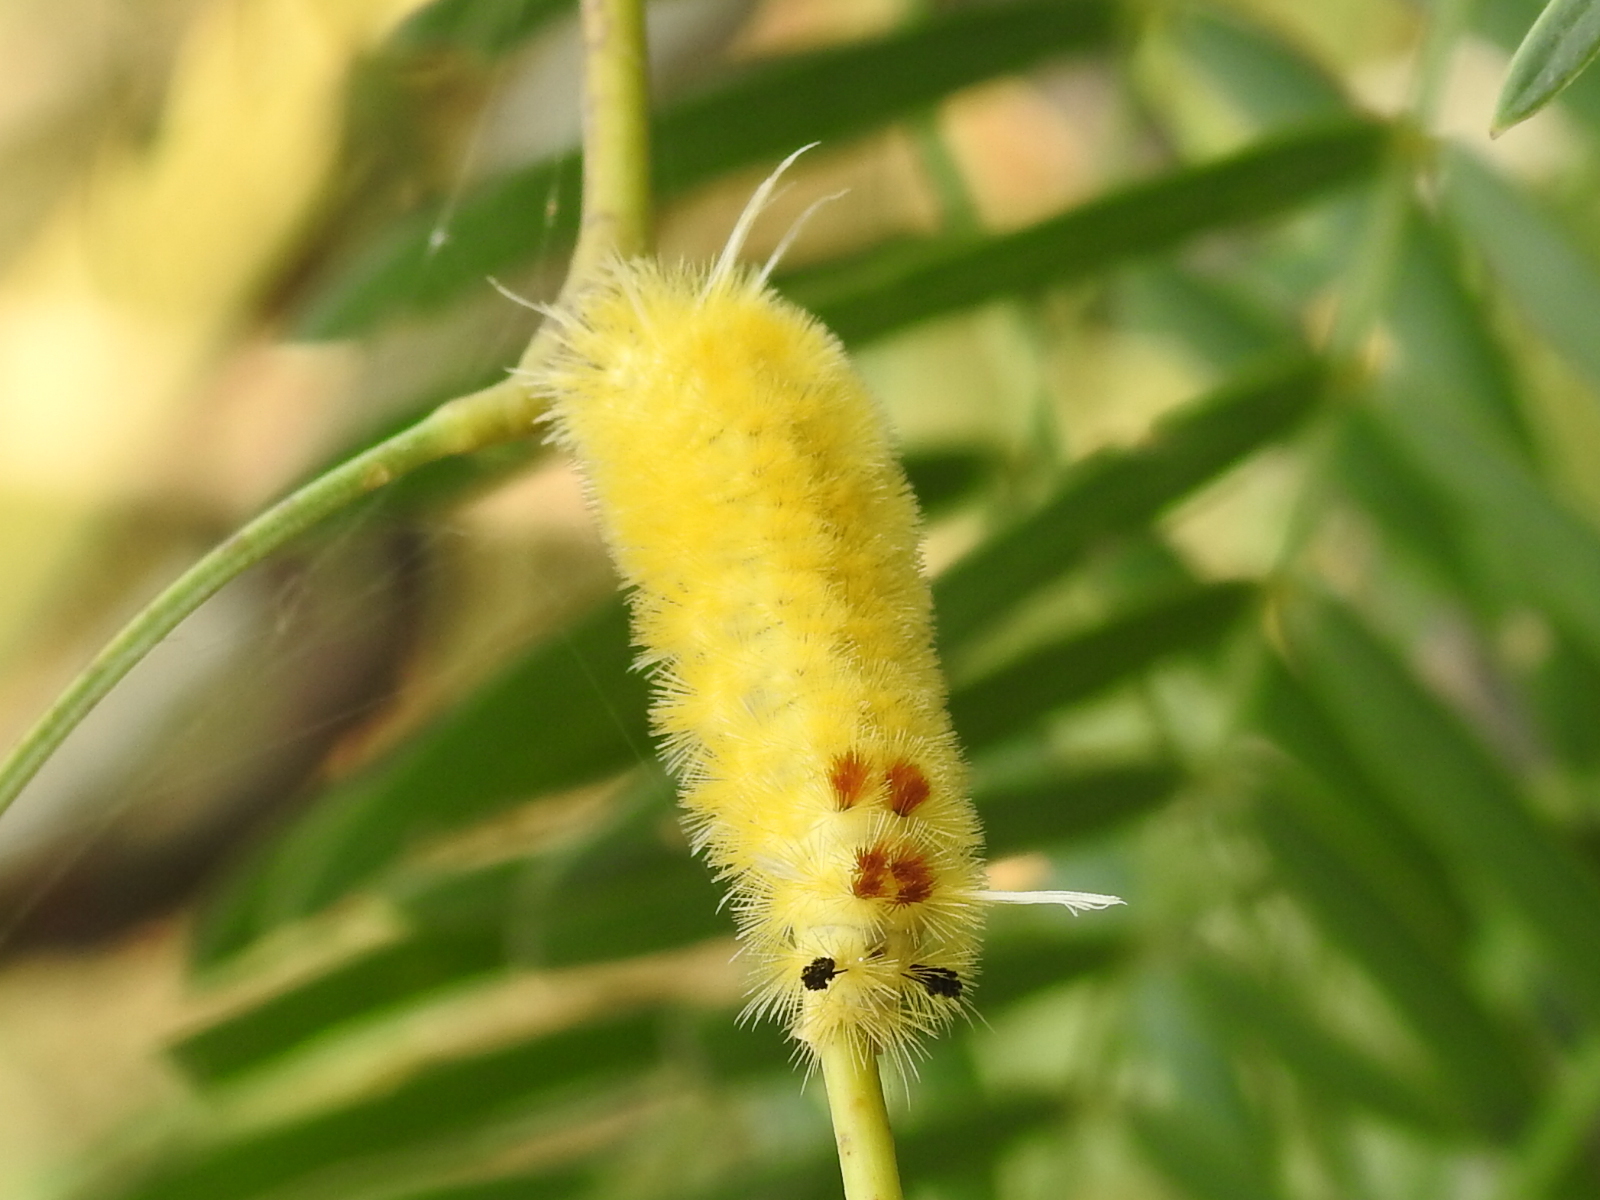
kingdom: Animalia
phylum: Arthropoda
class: Insecta
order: Lepidoptera
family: Erebidae
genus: Lophocampa
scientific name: Lophocampa annulosa
